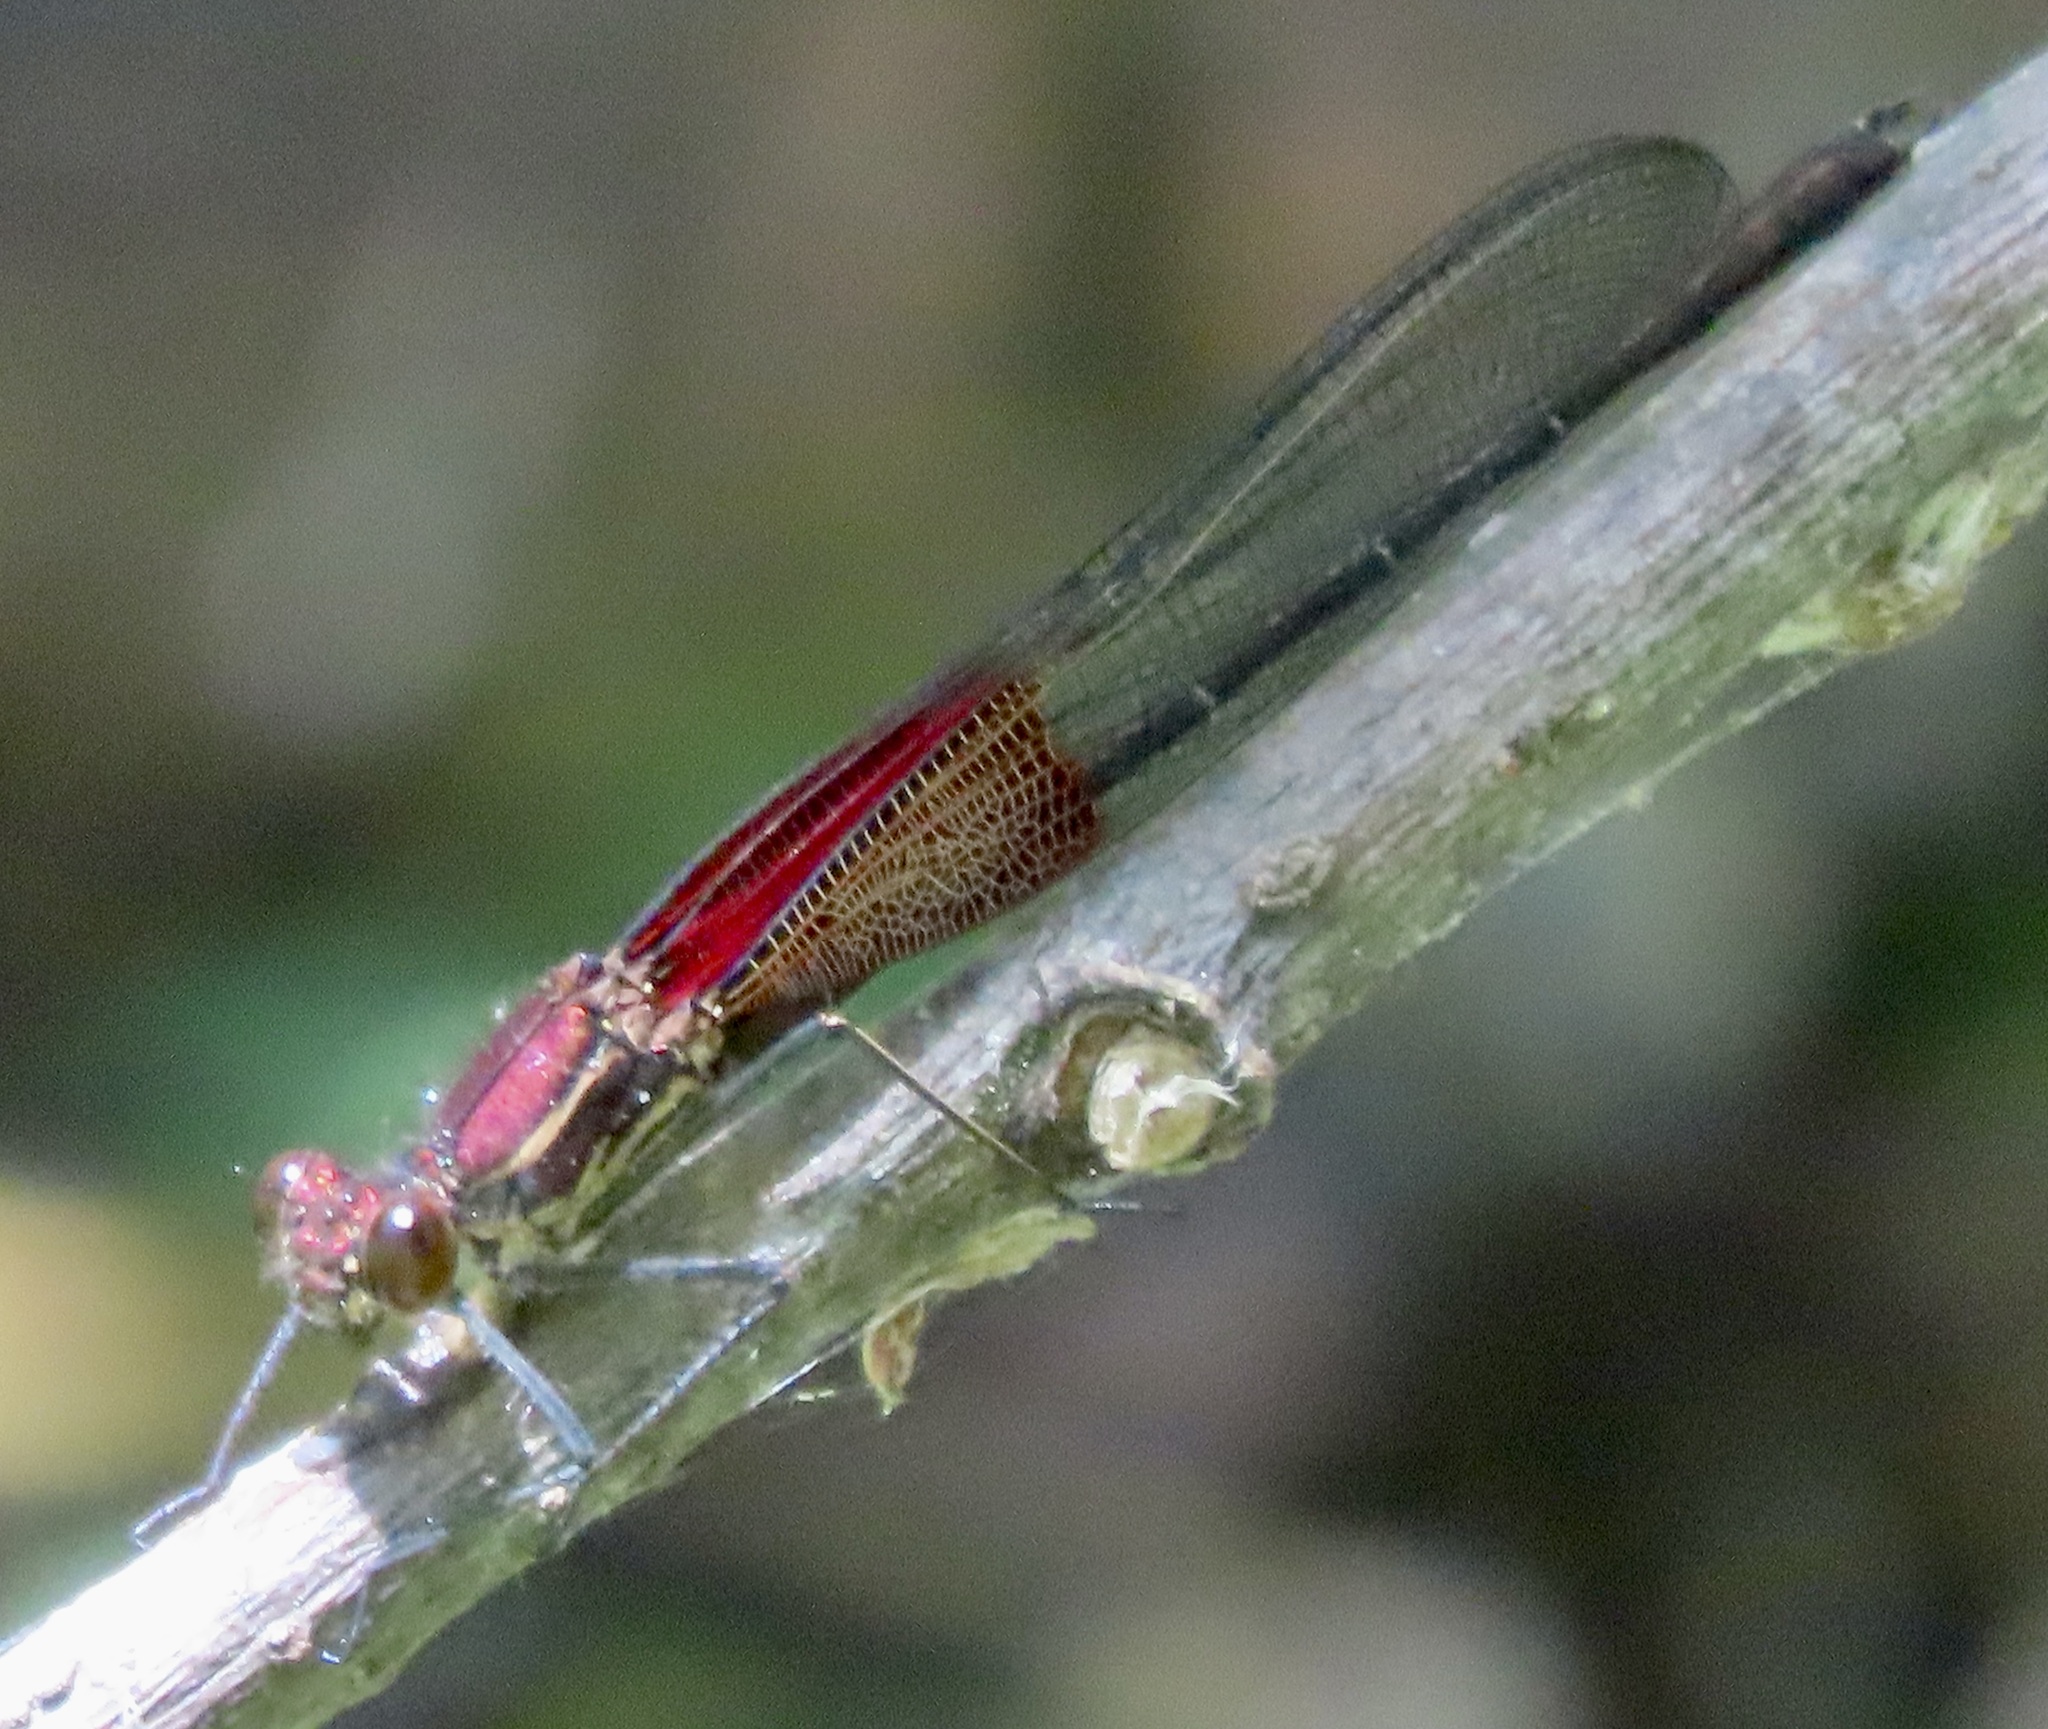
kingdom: Animalia
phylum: Arthropoda
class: Insecta
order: Odonata
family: Calopterygidae
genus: Hetaerina
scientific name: Hetaerina americana
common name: American rubyspot
